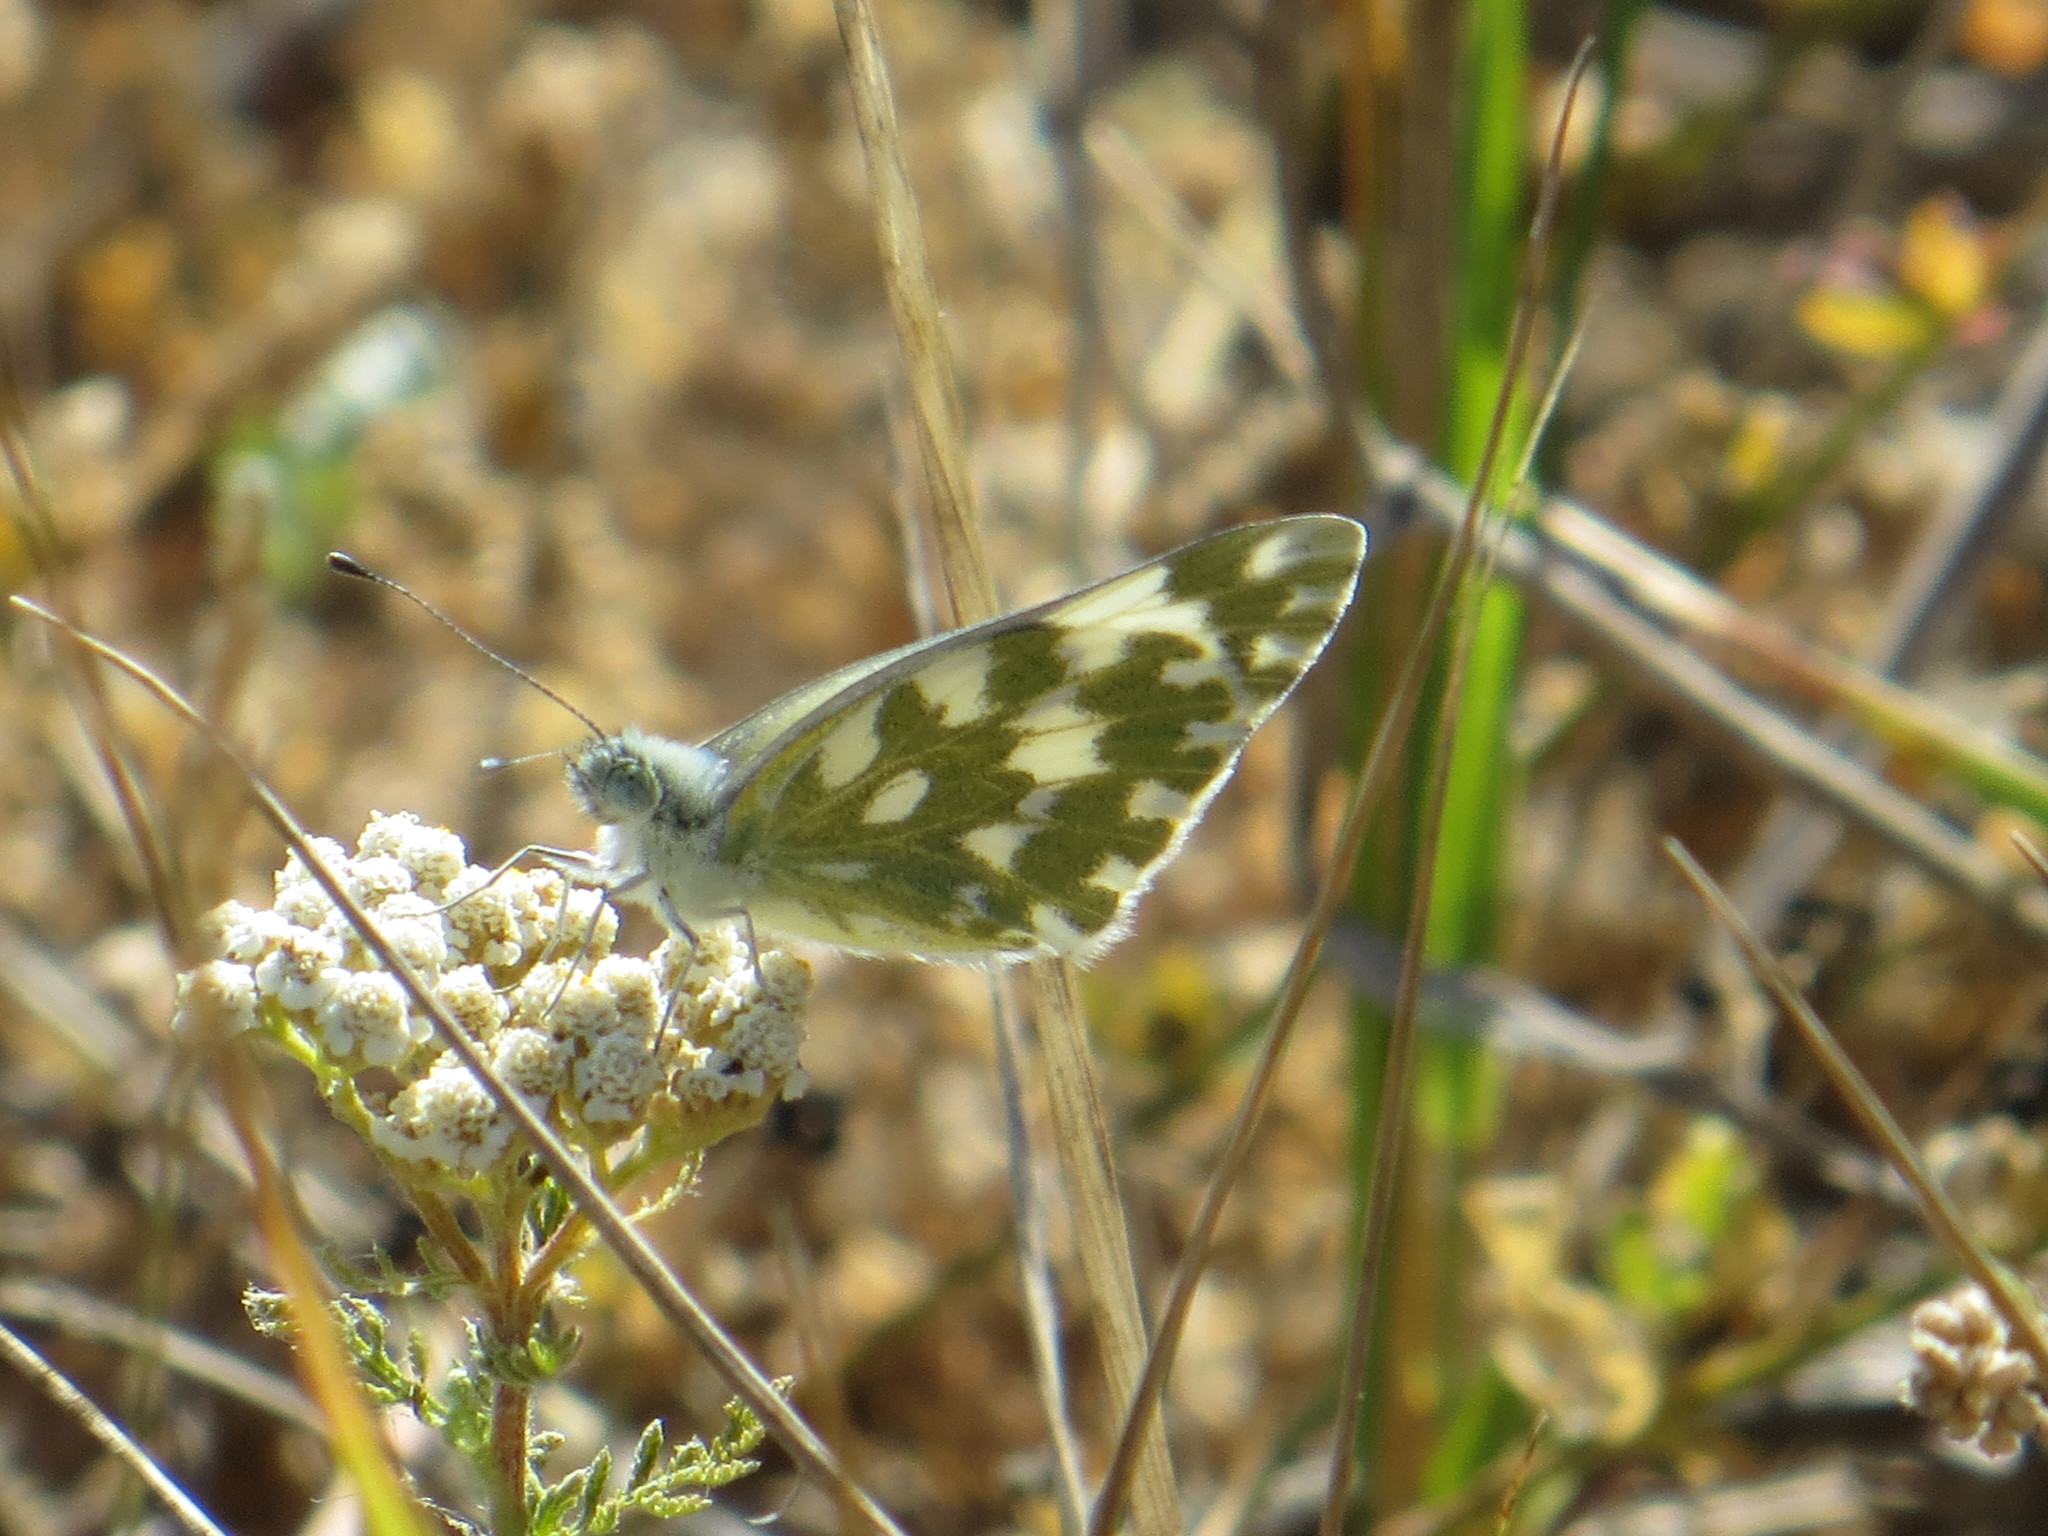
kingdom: Animalia
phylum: Arthropoda
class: Insecta
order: Lepidoptera
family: Pieridae
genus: Pontia
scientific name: Pontia edusa
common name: Eastern bath white
